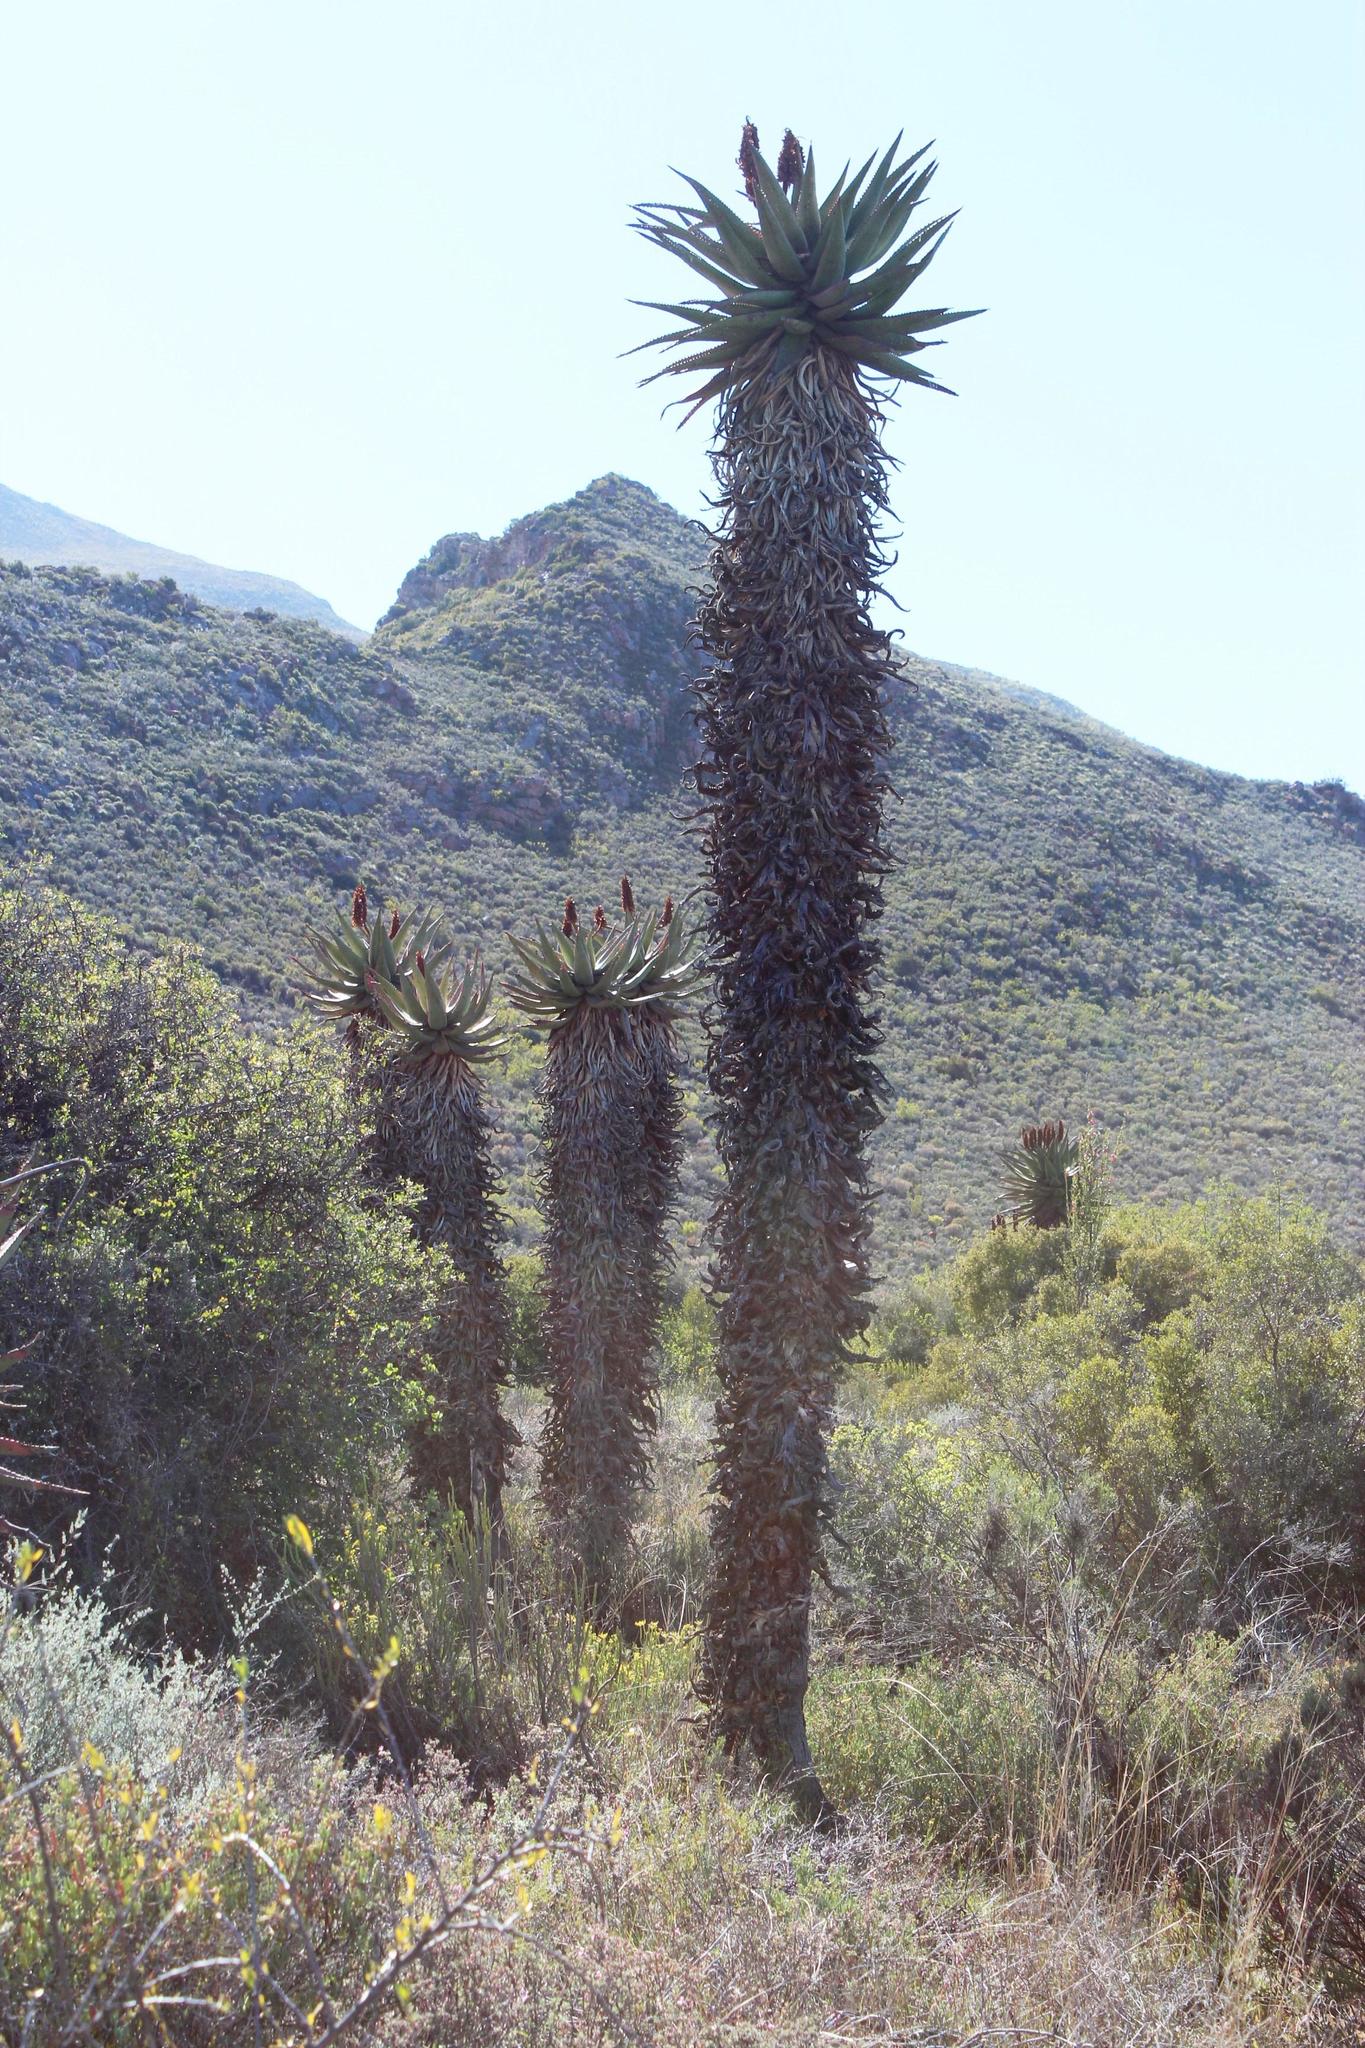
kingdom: Plantae
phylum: Tracheophyta
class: Liliopsida
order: Asparagales
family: Asphodelaceae
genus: Aloe
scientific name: Aloe ferox
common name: Bitter aloe
